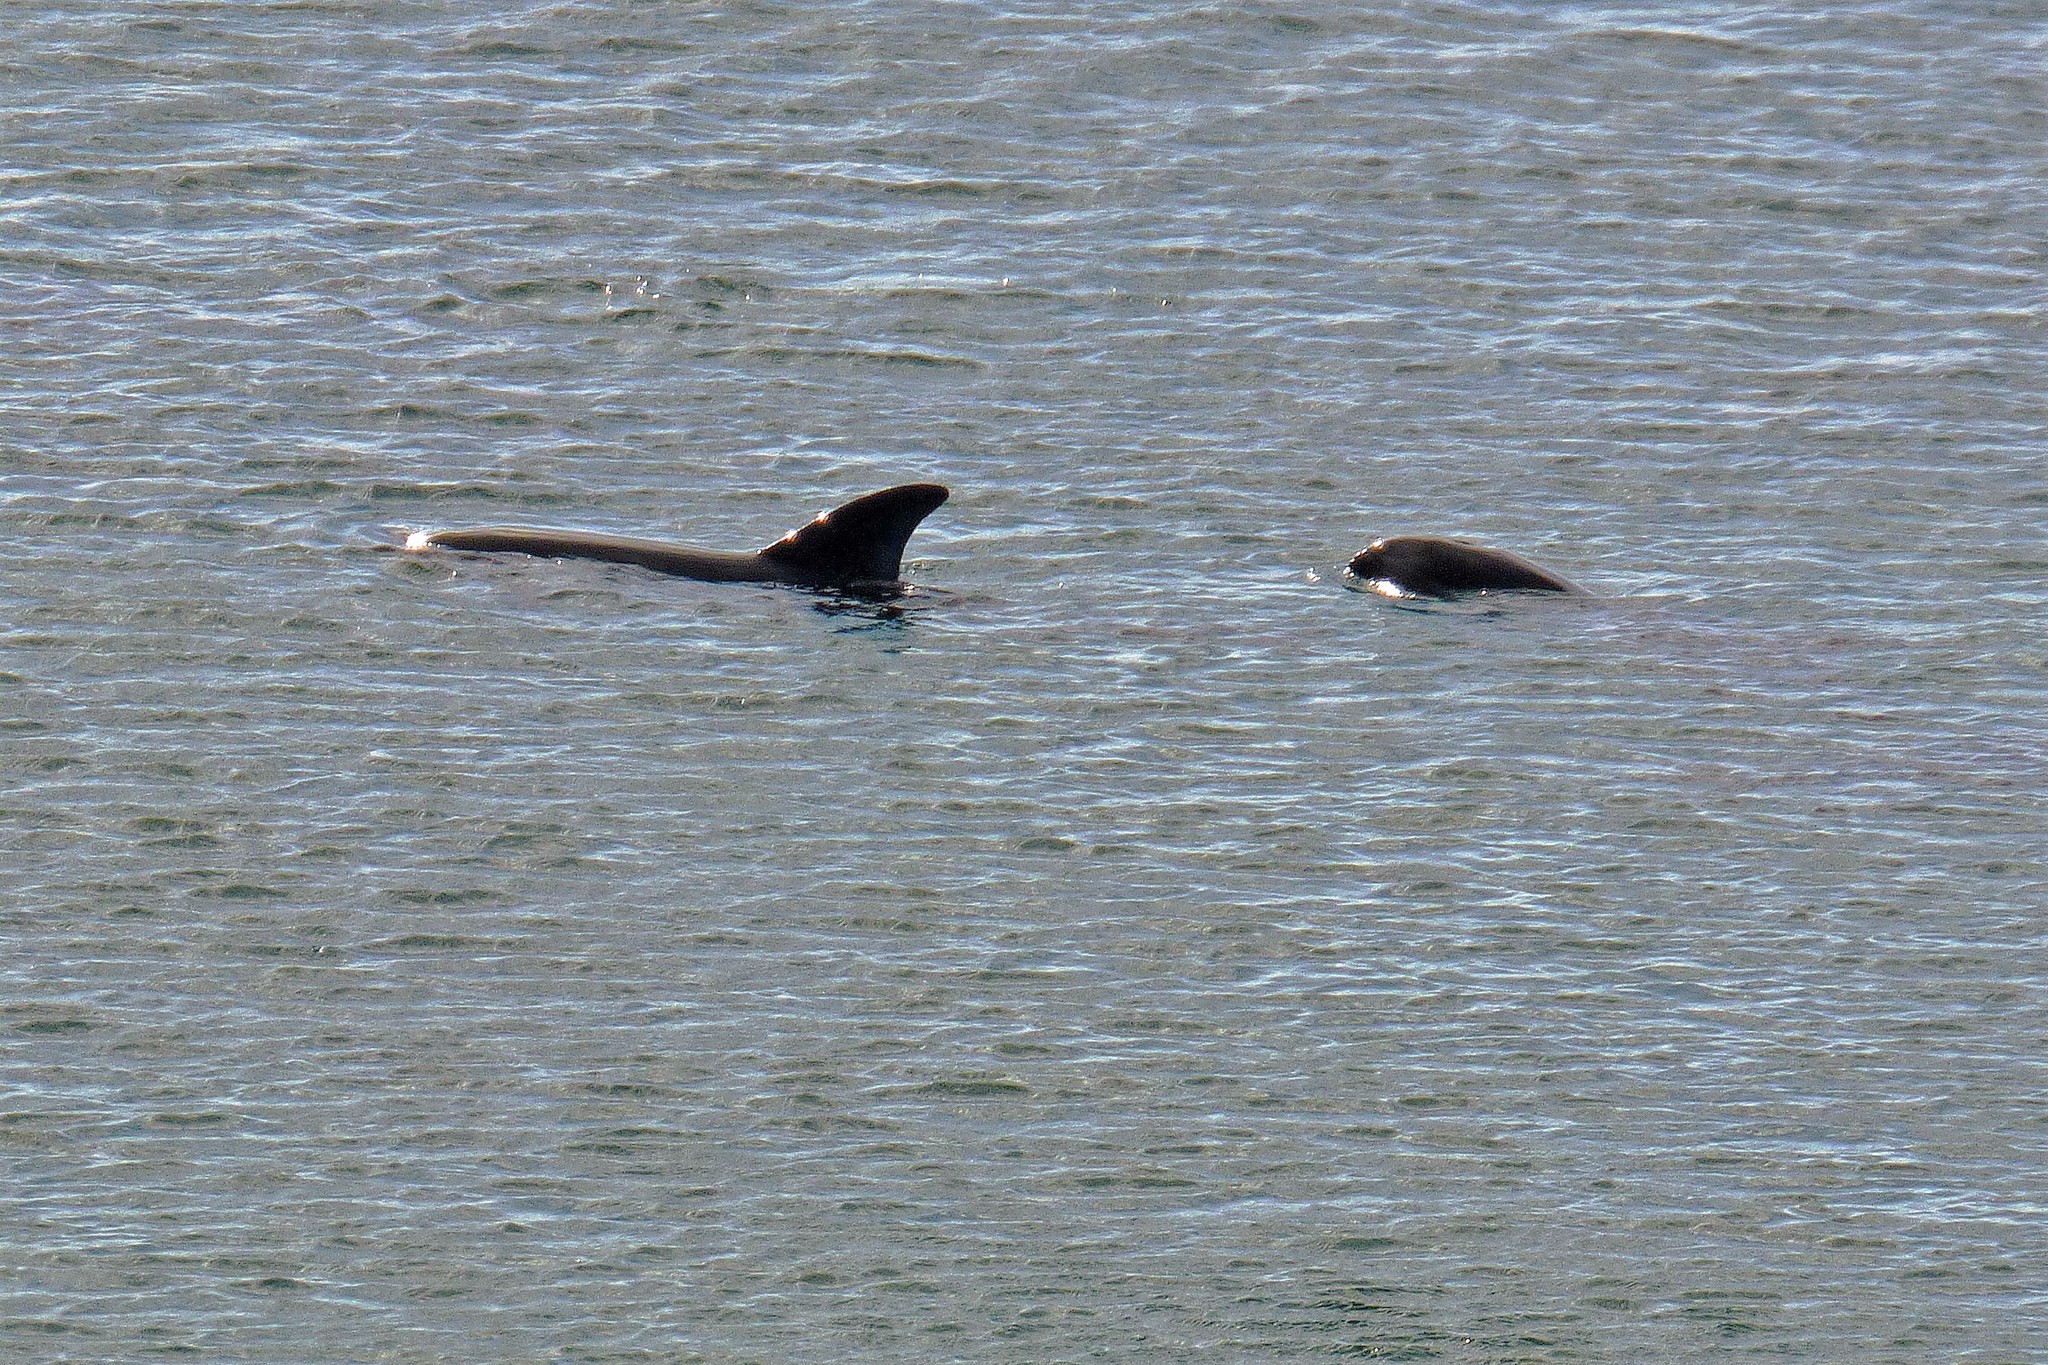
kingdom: Animalia
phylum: Chordata
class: Mammalia
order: Cetacea
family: Delphinidae
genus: Lagenorhynchus
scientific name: Lagenorhynchus australis
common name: Peale's dolphin
